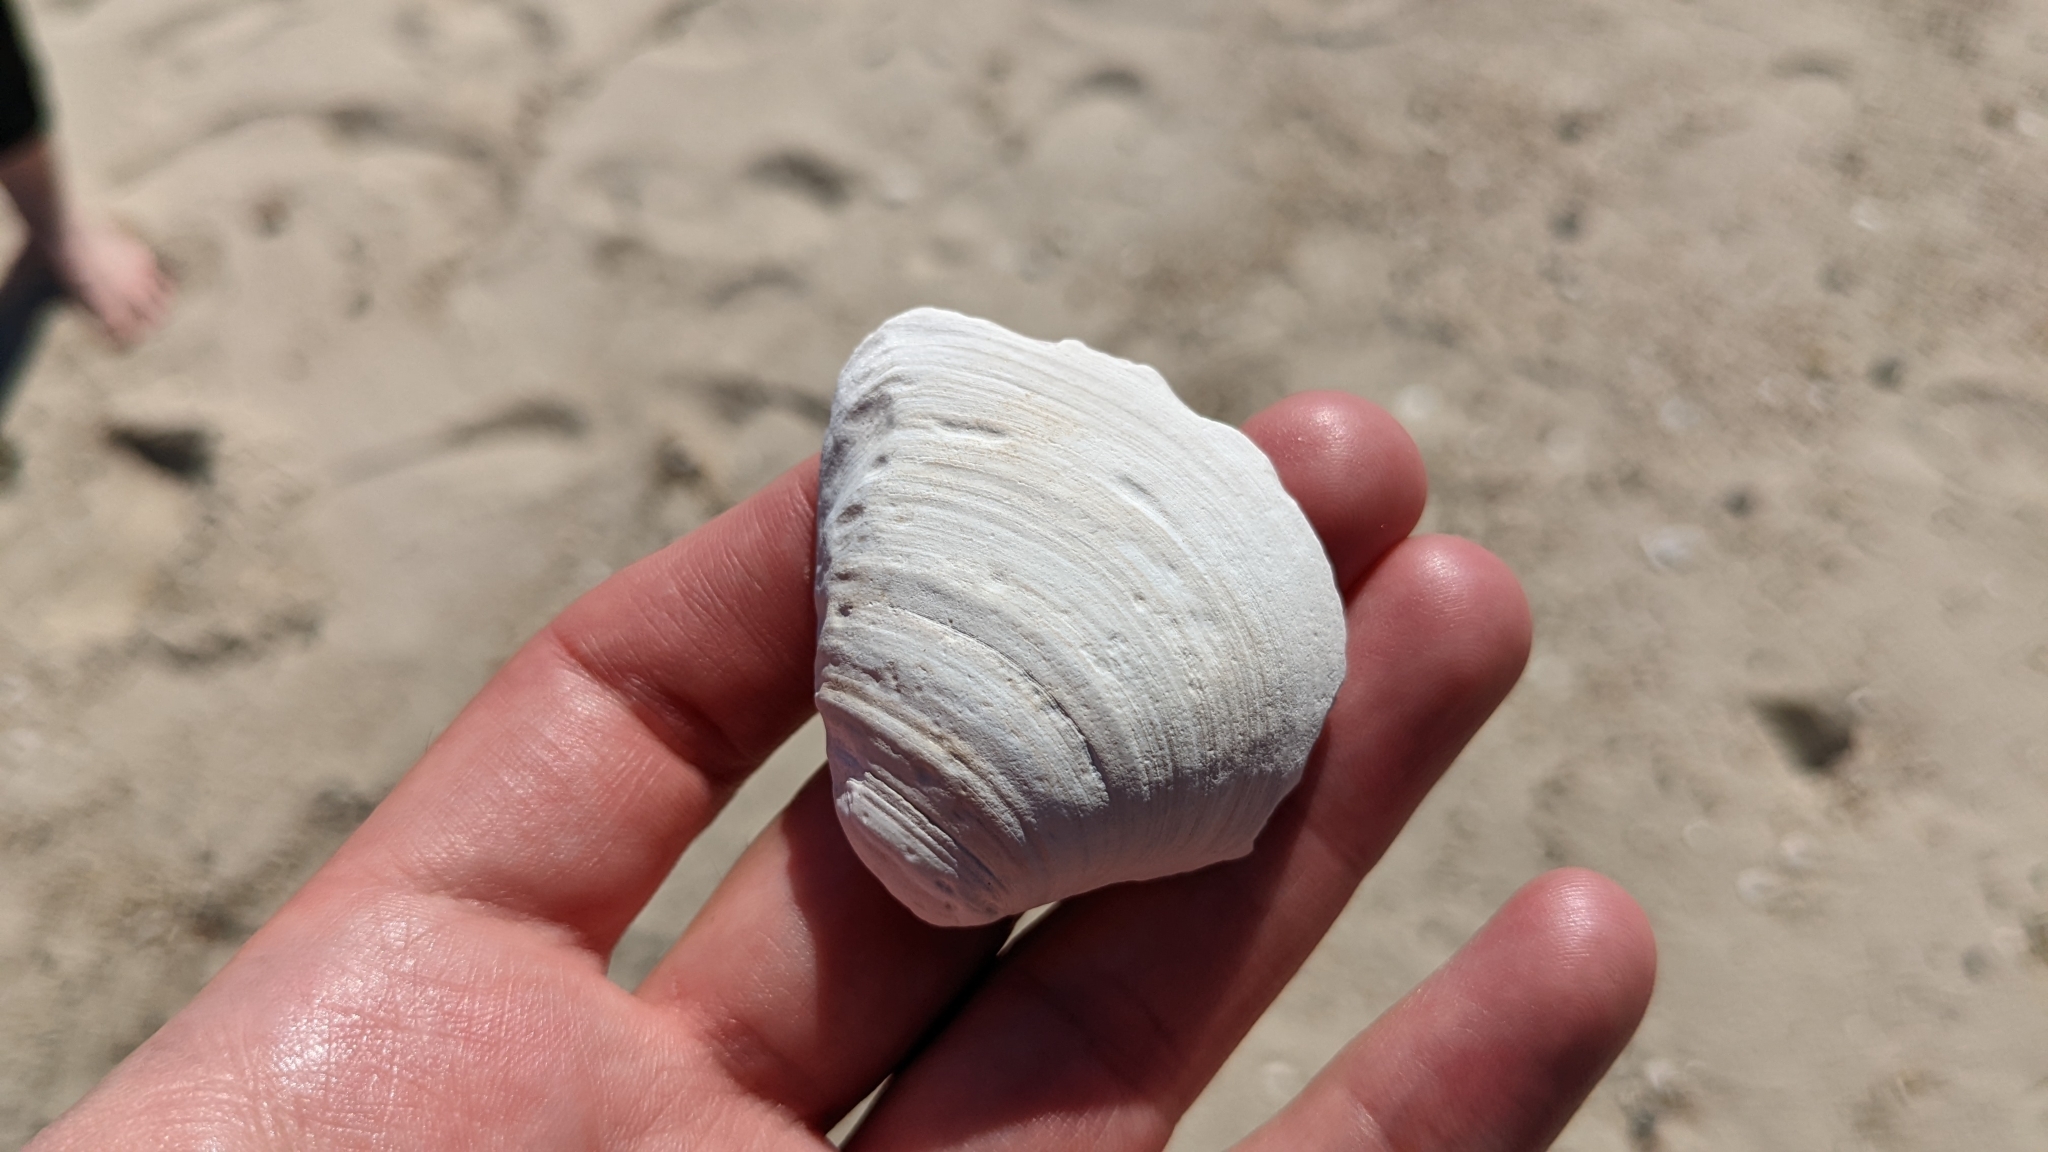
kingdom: Animalia
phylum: Mollusca
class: Bivalvia
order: Venerida
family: Mactridae
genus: Rangia
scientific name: Rangia cuneata
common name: Atlantic rangia
